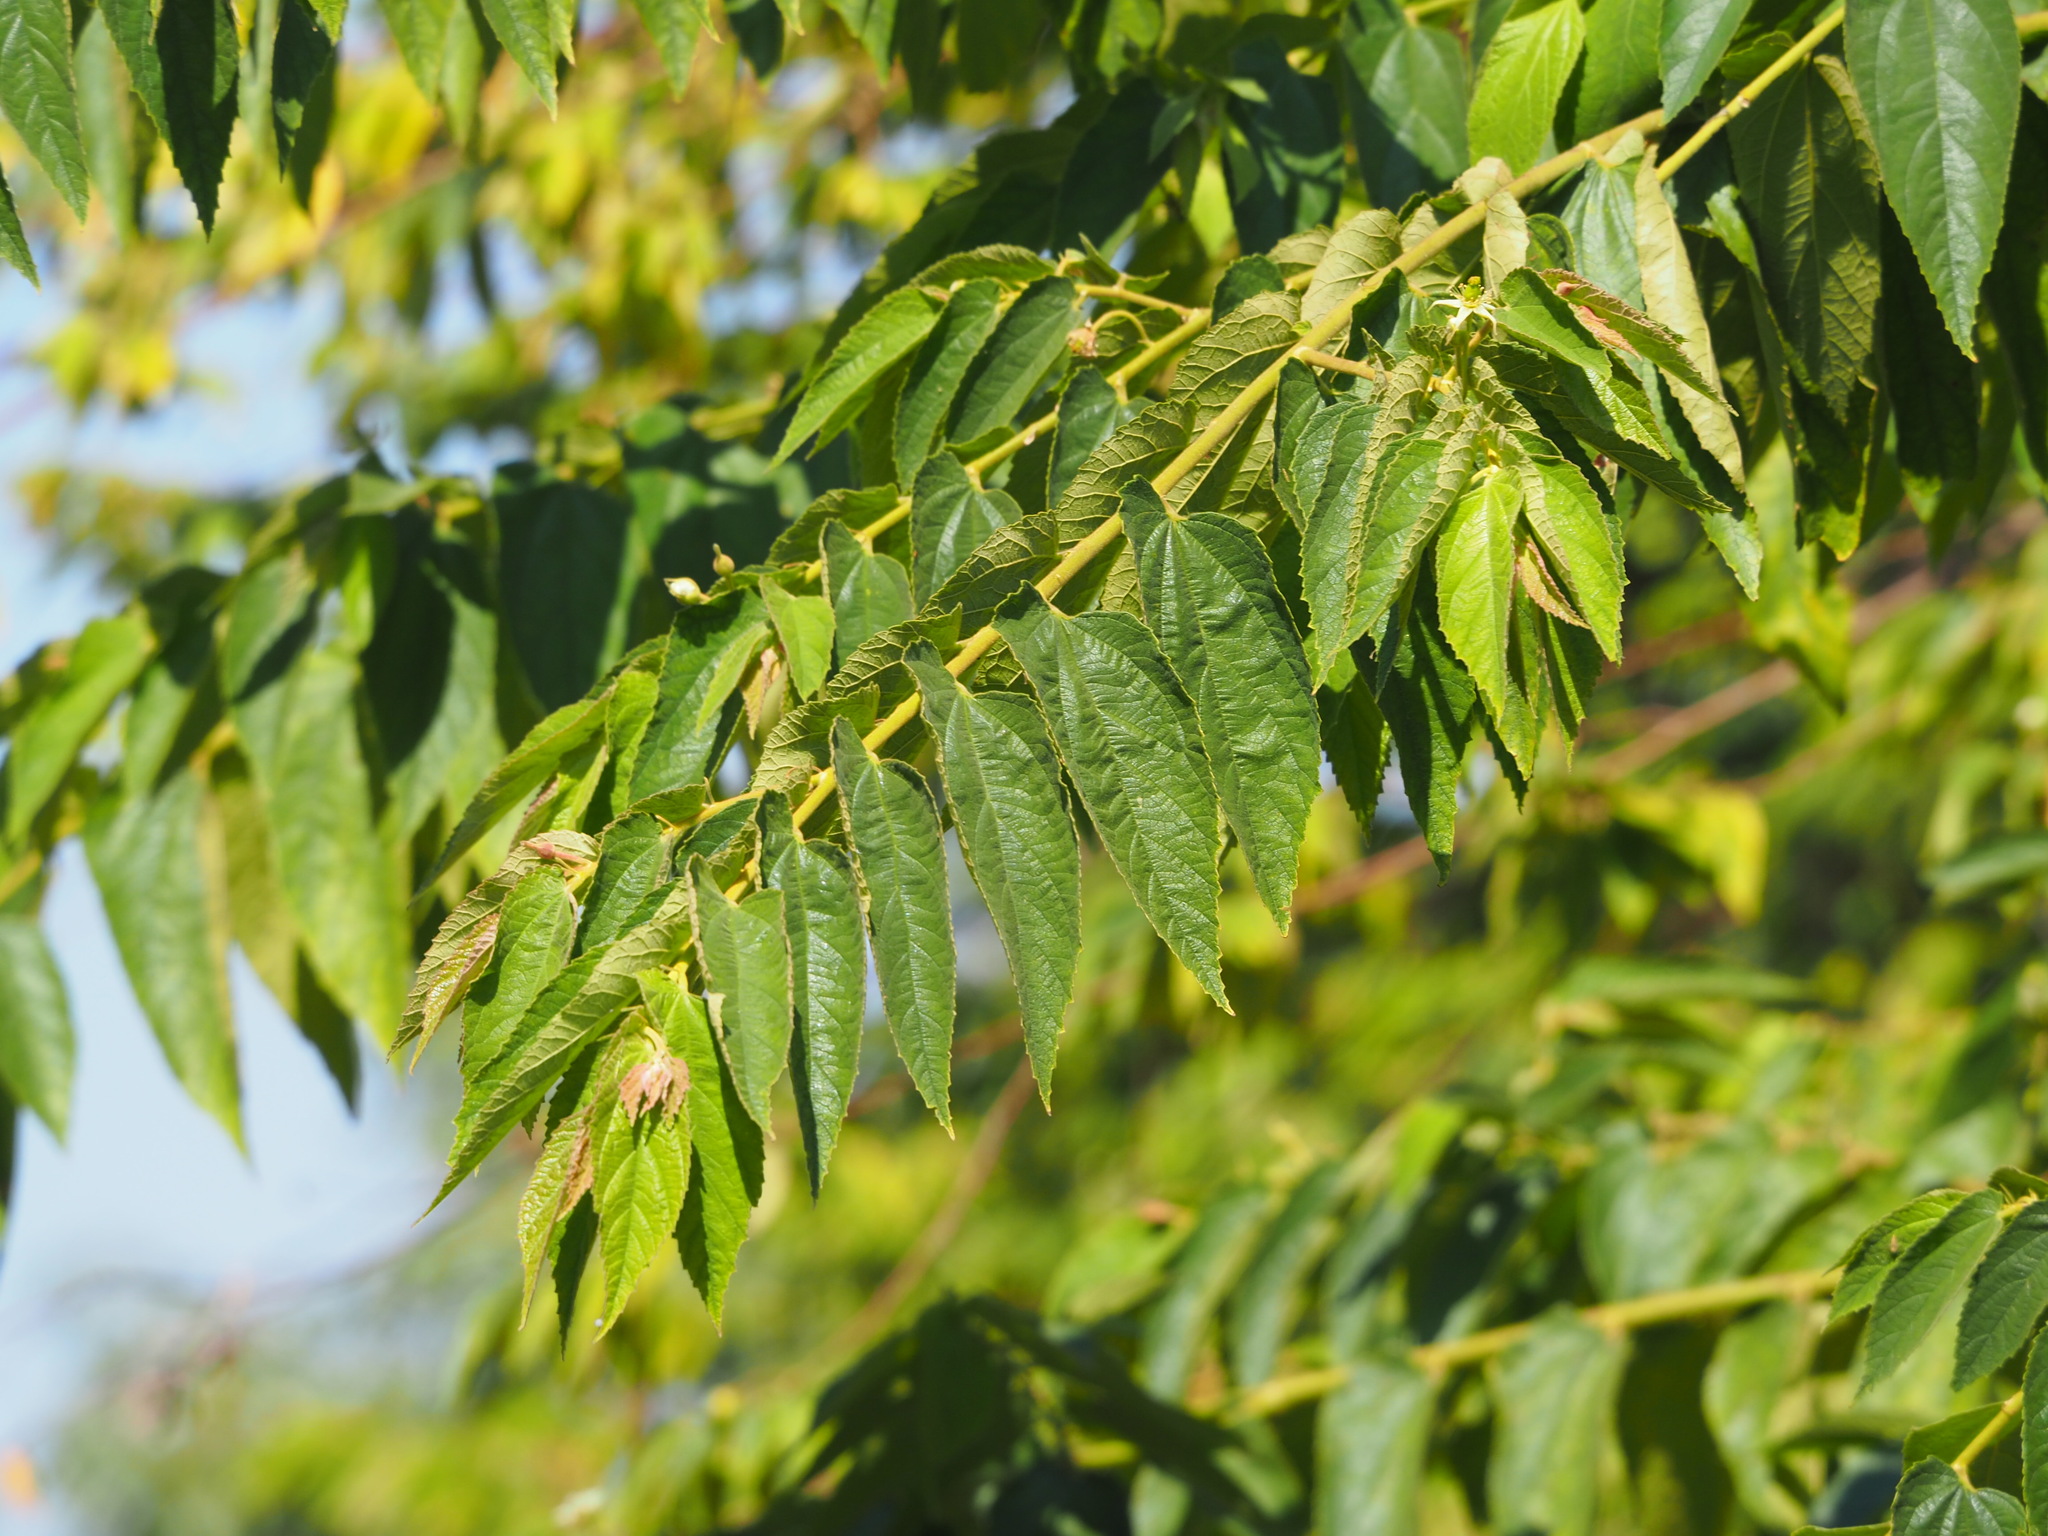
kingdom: Plantae
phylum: Tracheophyta
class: Magnoliopsida
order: Malvales
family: Muntingiaceae
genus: Muntingia
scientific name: Muntingia calabura
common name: Strawberrytree
